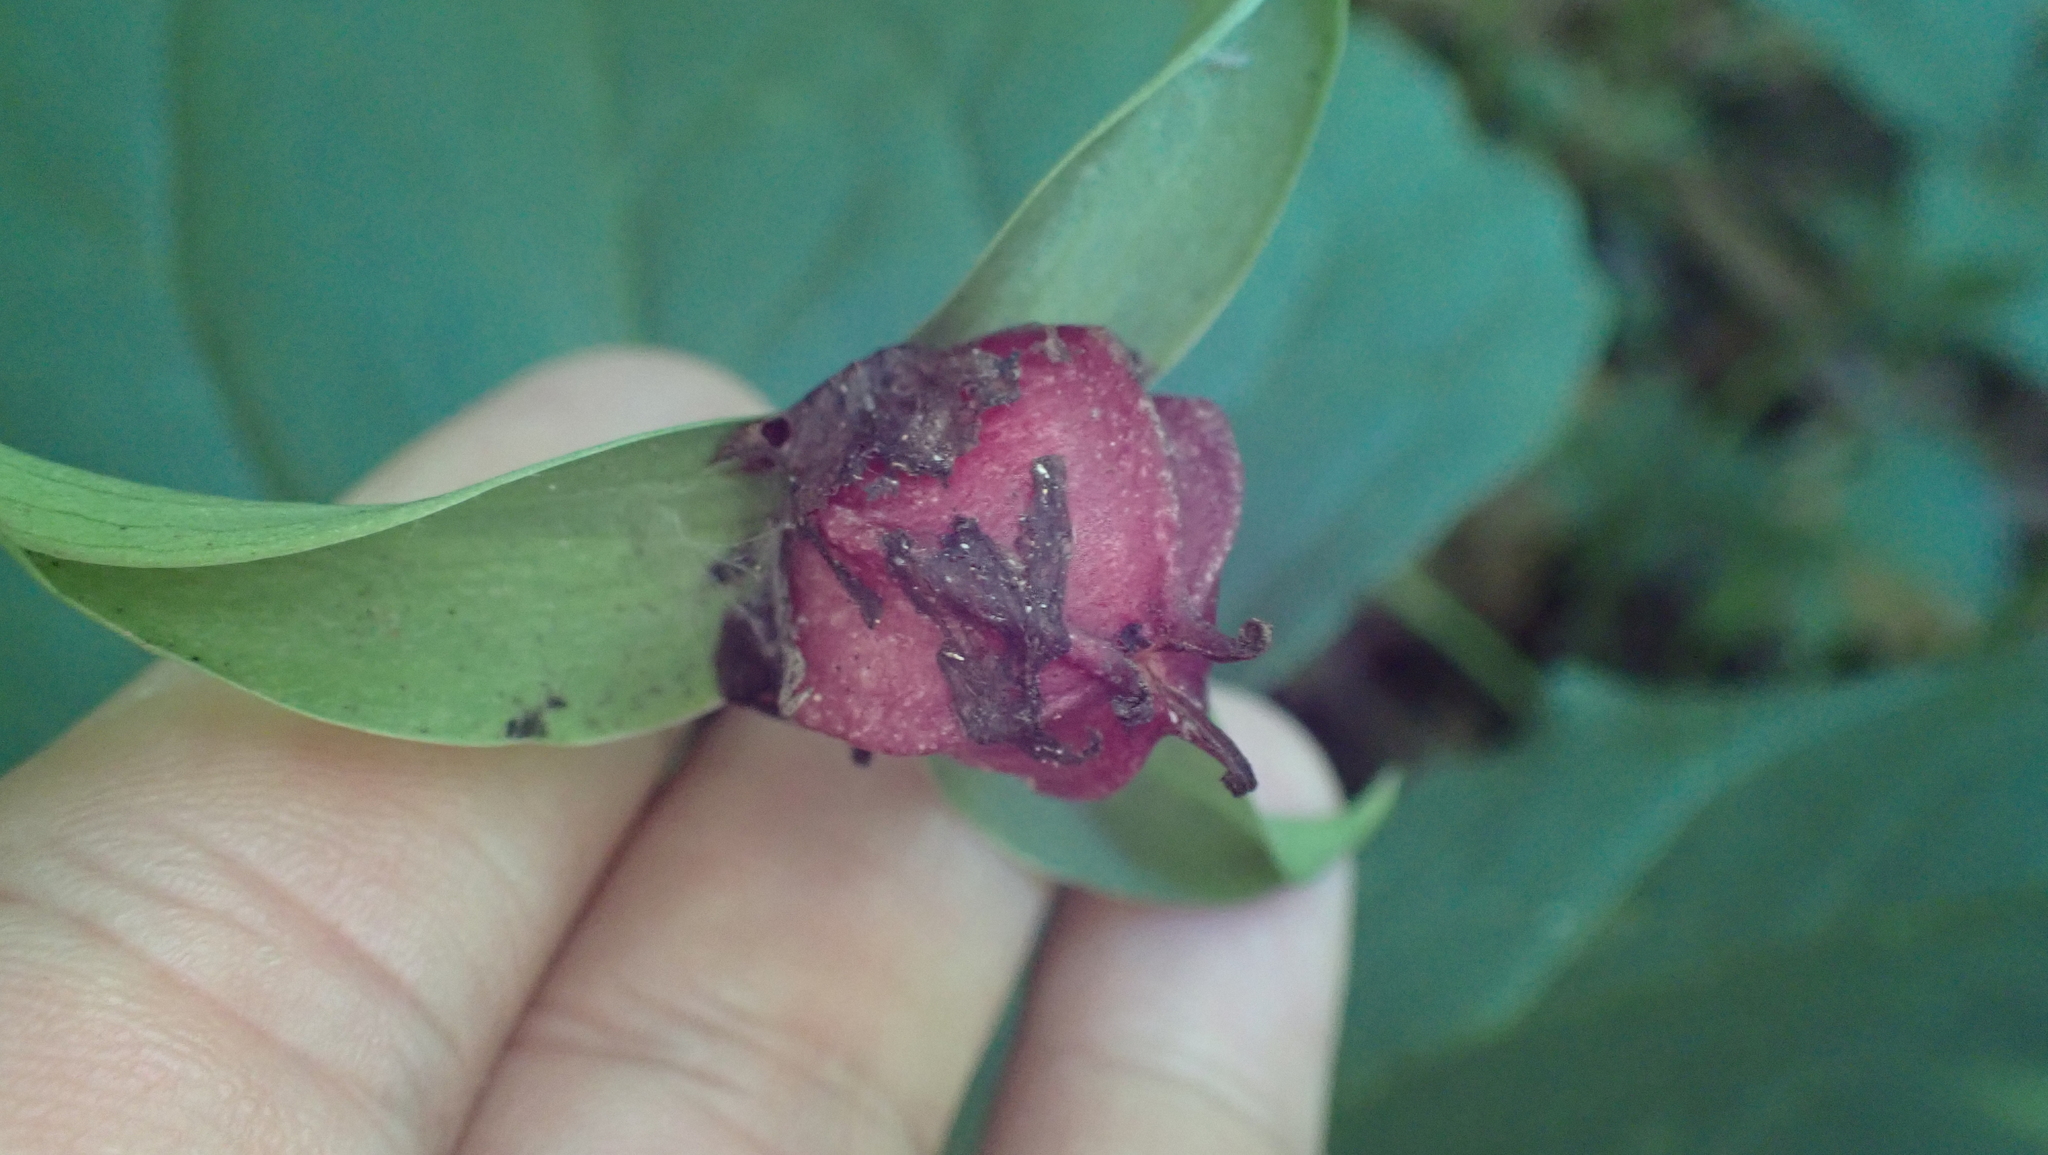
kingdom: Plantae
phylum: Tracheophyta
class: Liliopsida
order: Liliales
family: Melanthiaceae
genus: Trillium
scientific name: Trillium erectum
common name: Purple trillium
